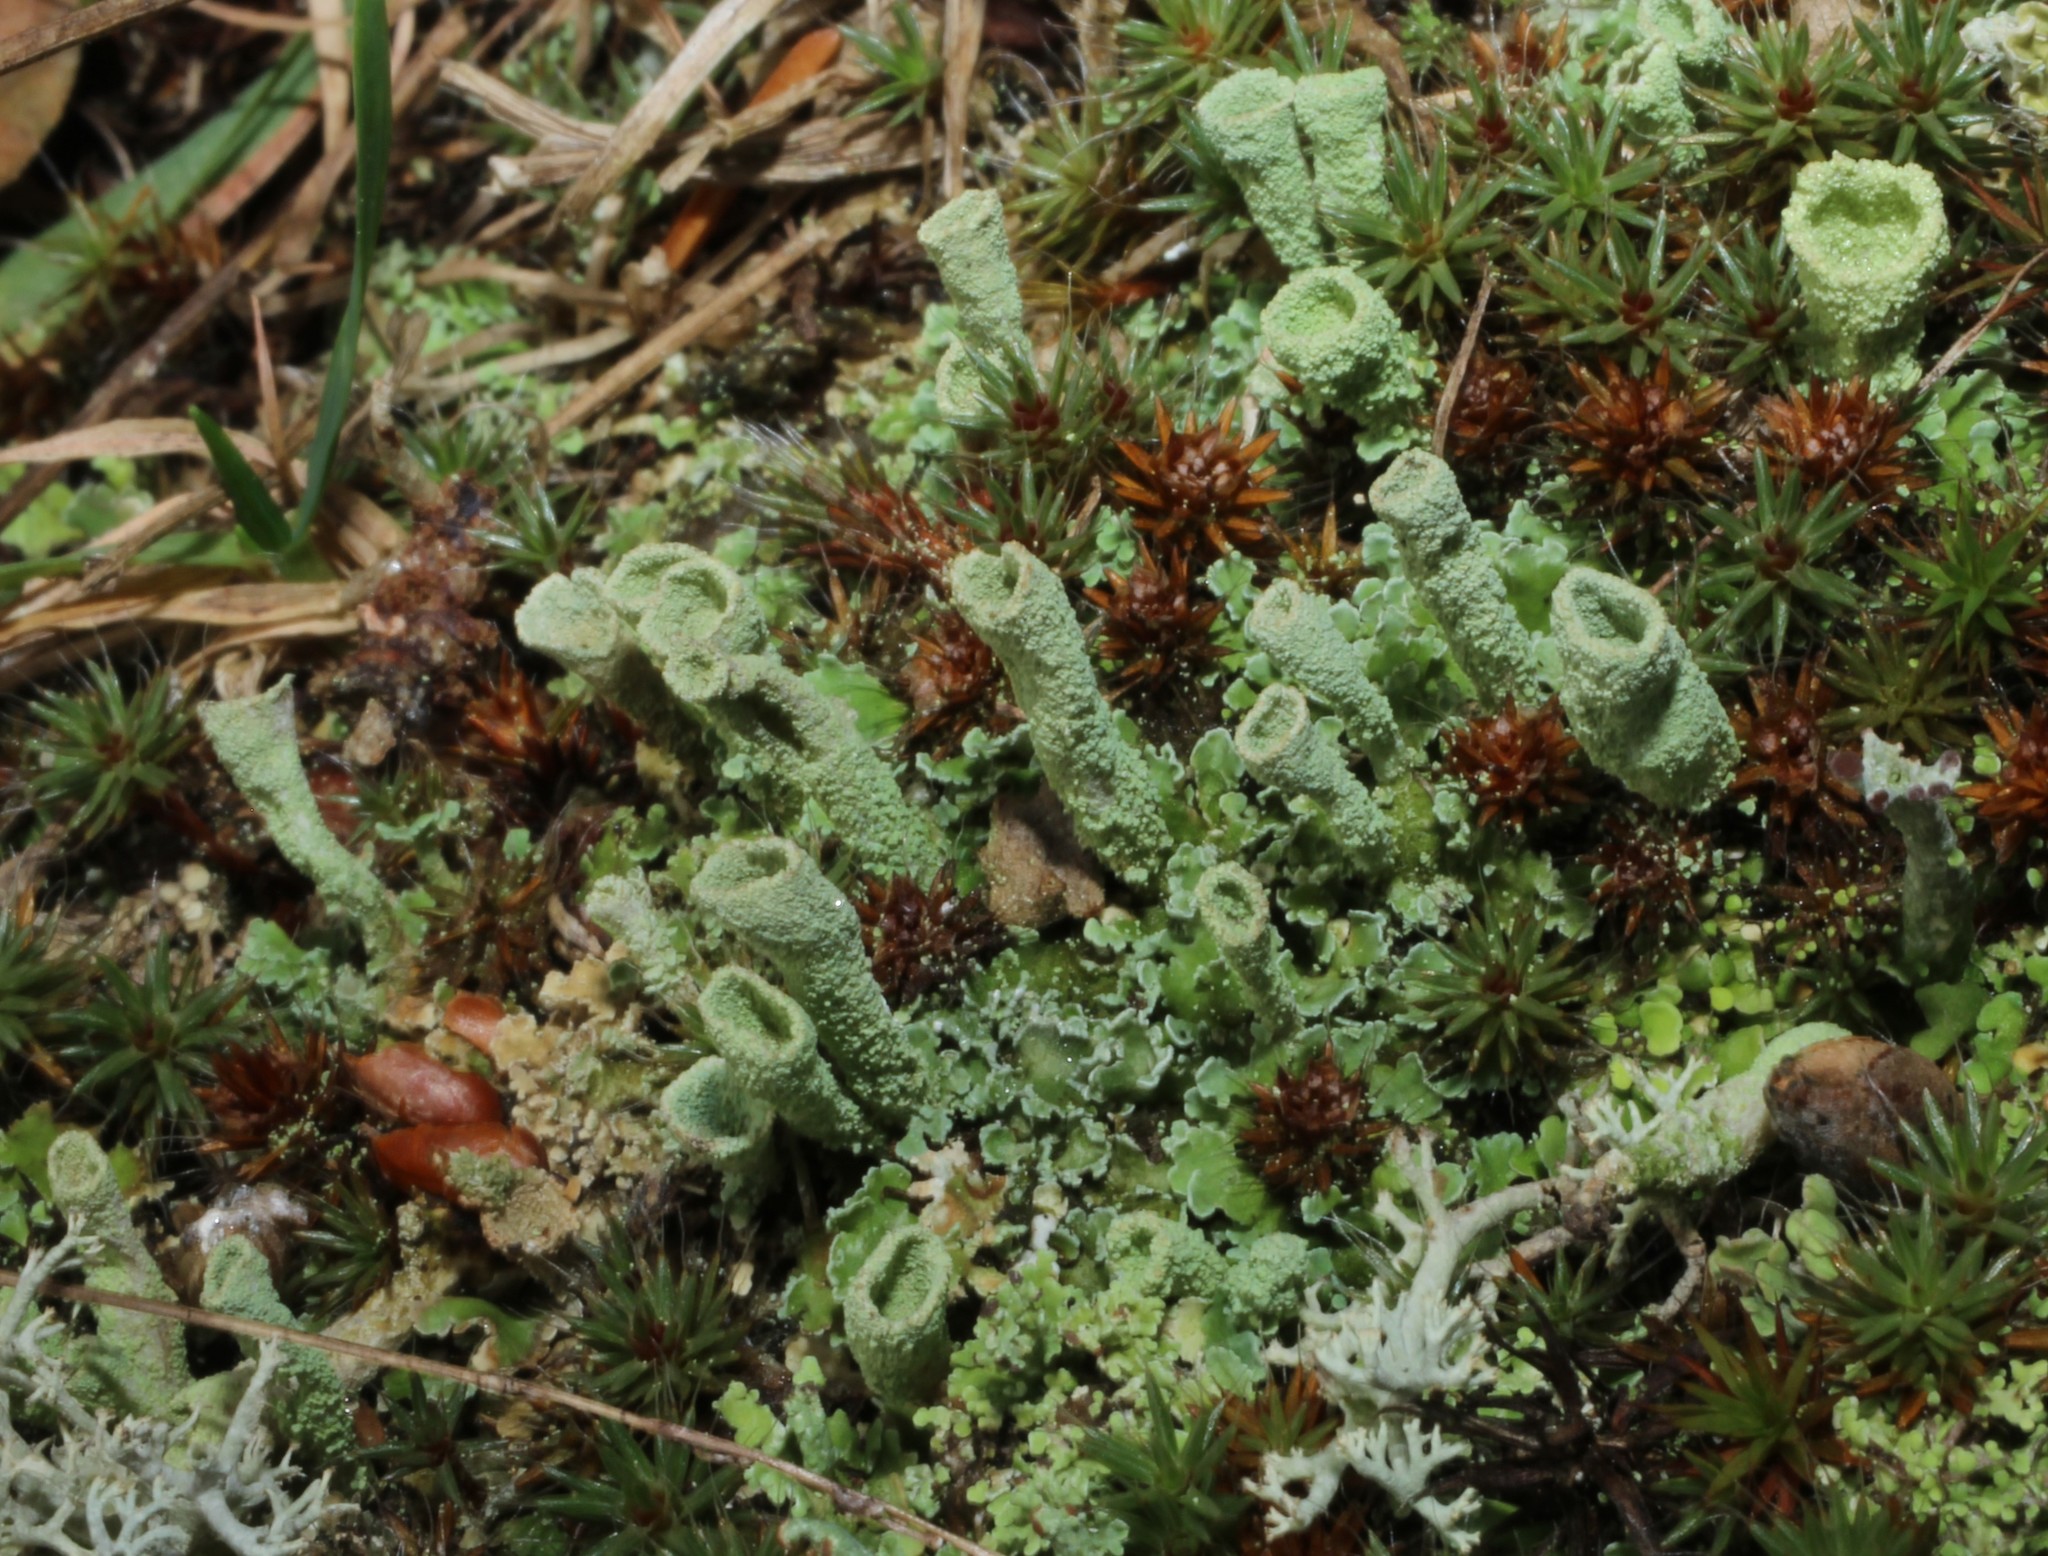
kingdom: Fungi
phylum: Ascomycota
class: Lecanoromycetes
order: Lecanorales
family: Cladoniaceae
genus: Cladonia
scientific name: Cladonia cylindrica
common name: Cylinder cup lichen
